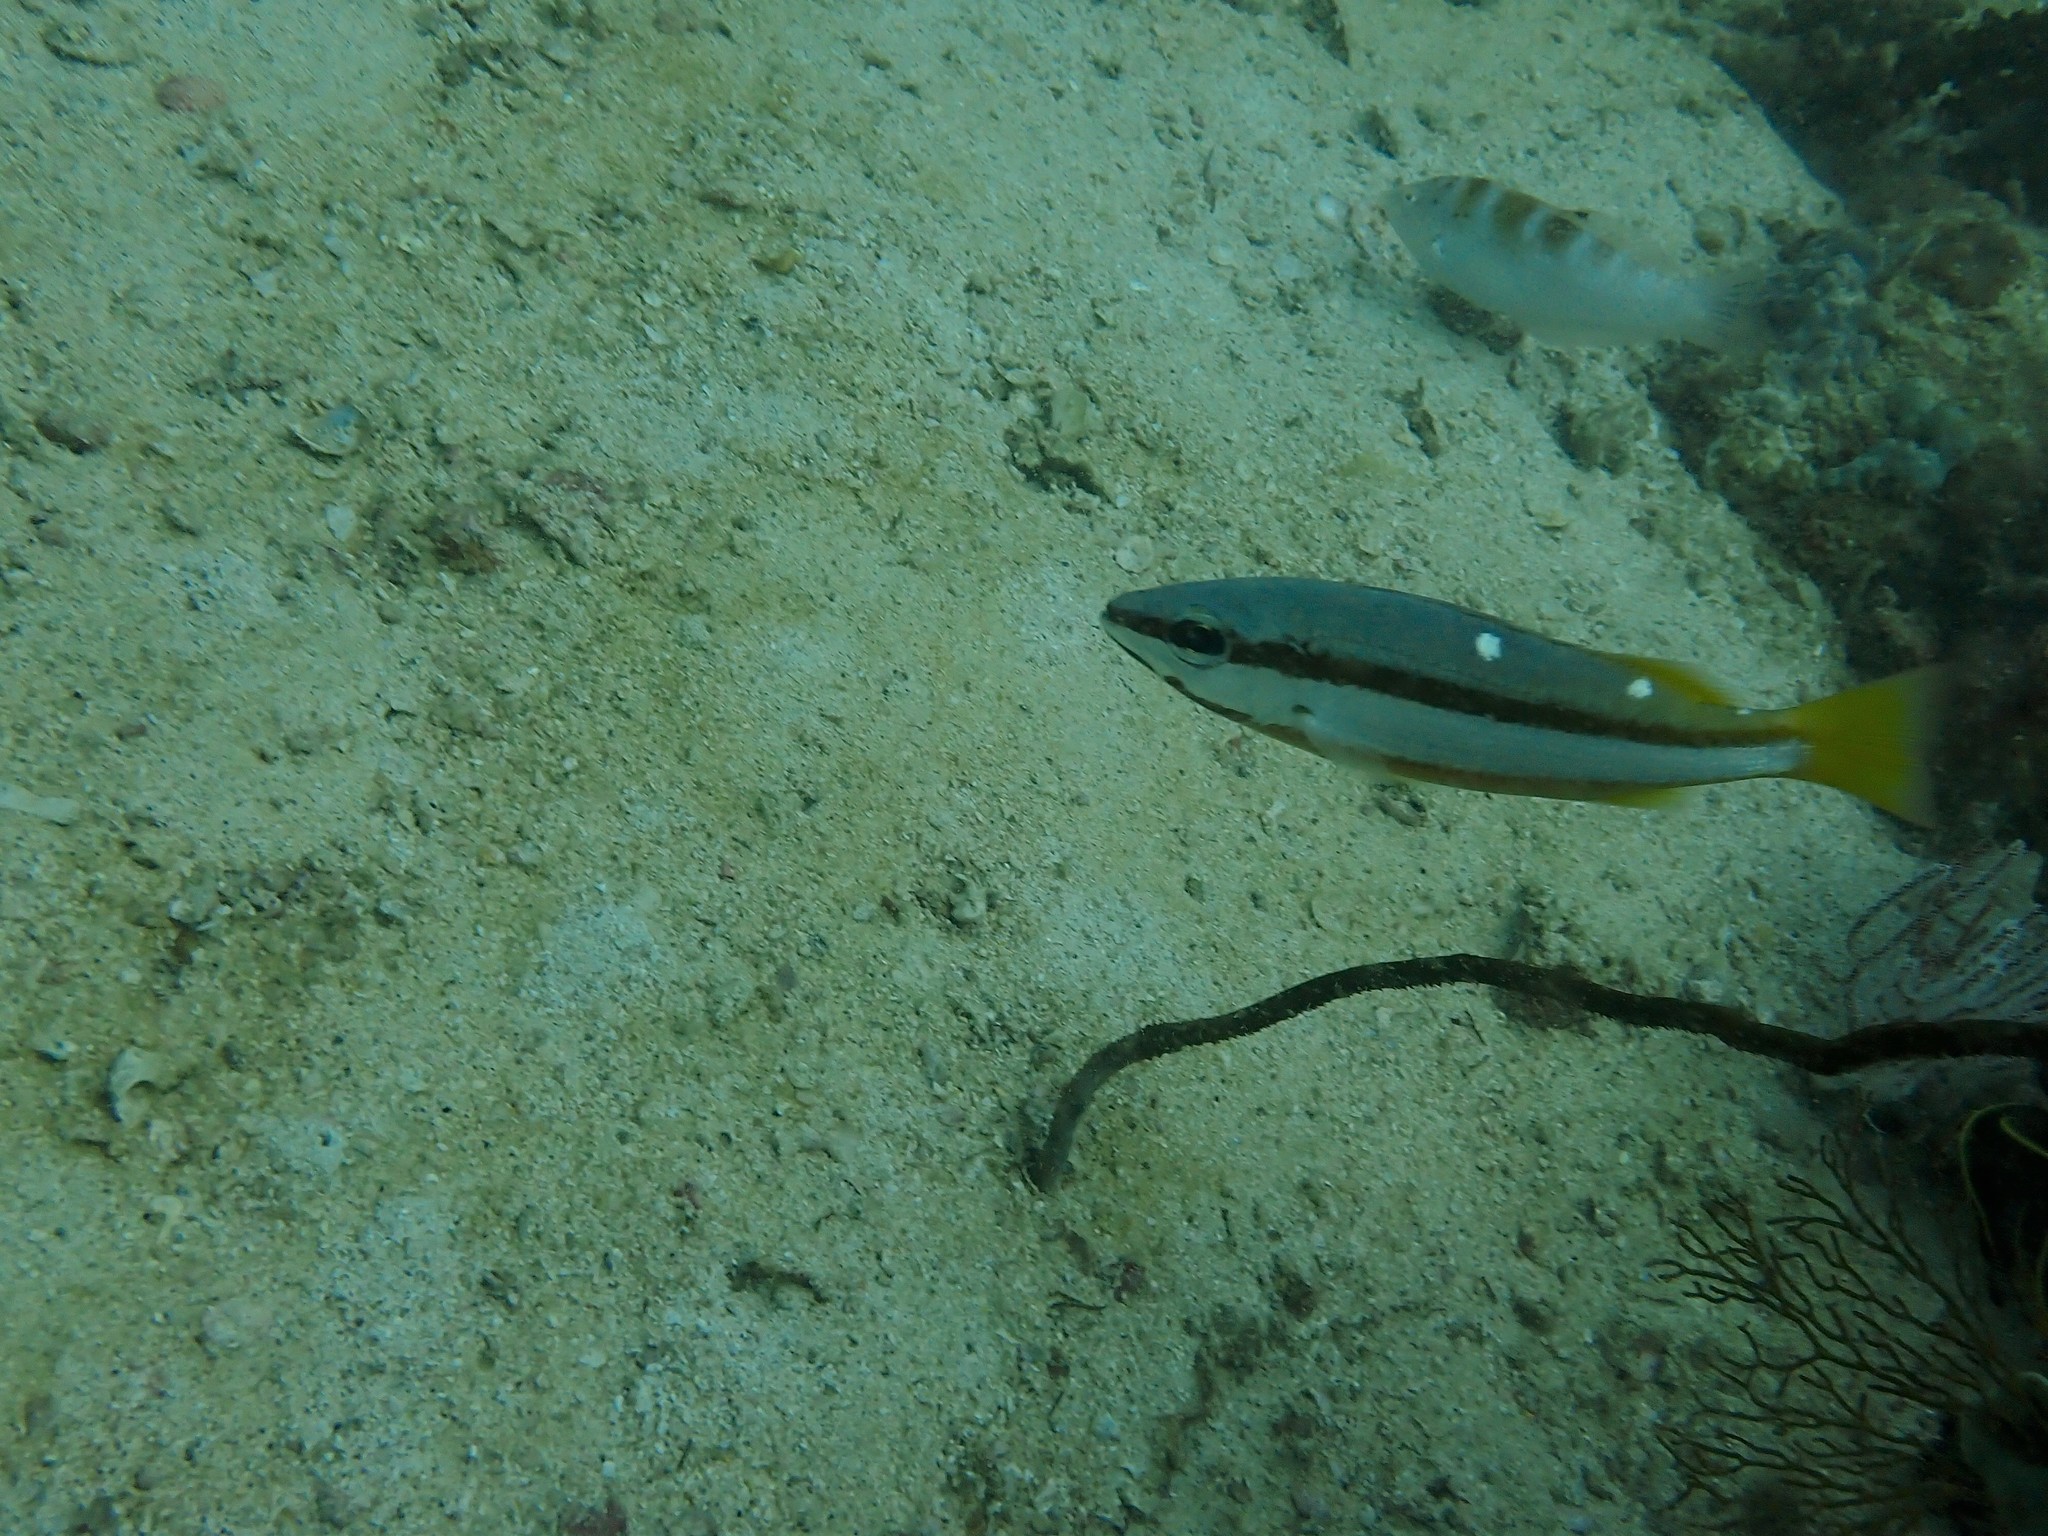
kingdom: Animalia
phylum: Chordata
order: Perciformes
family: Lutjanidae
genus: Lutjanus
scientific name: Lutjanus biguttatus
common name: Two-spot snapper
